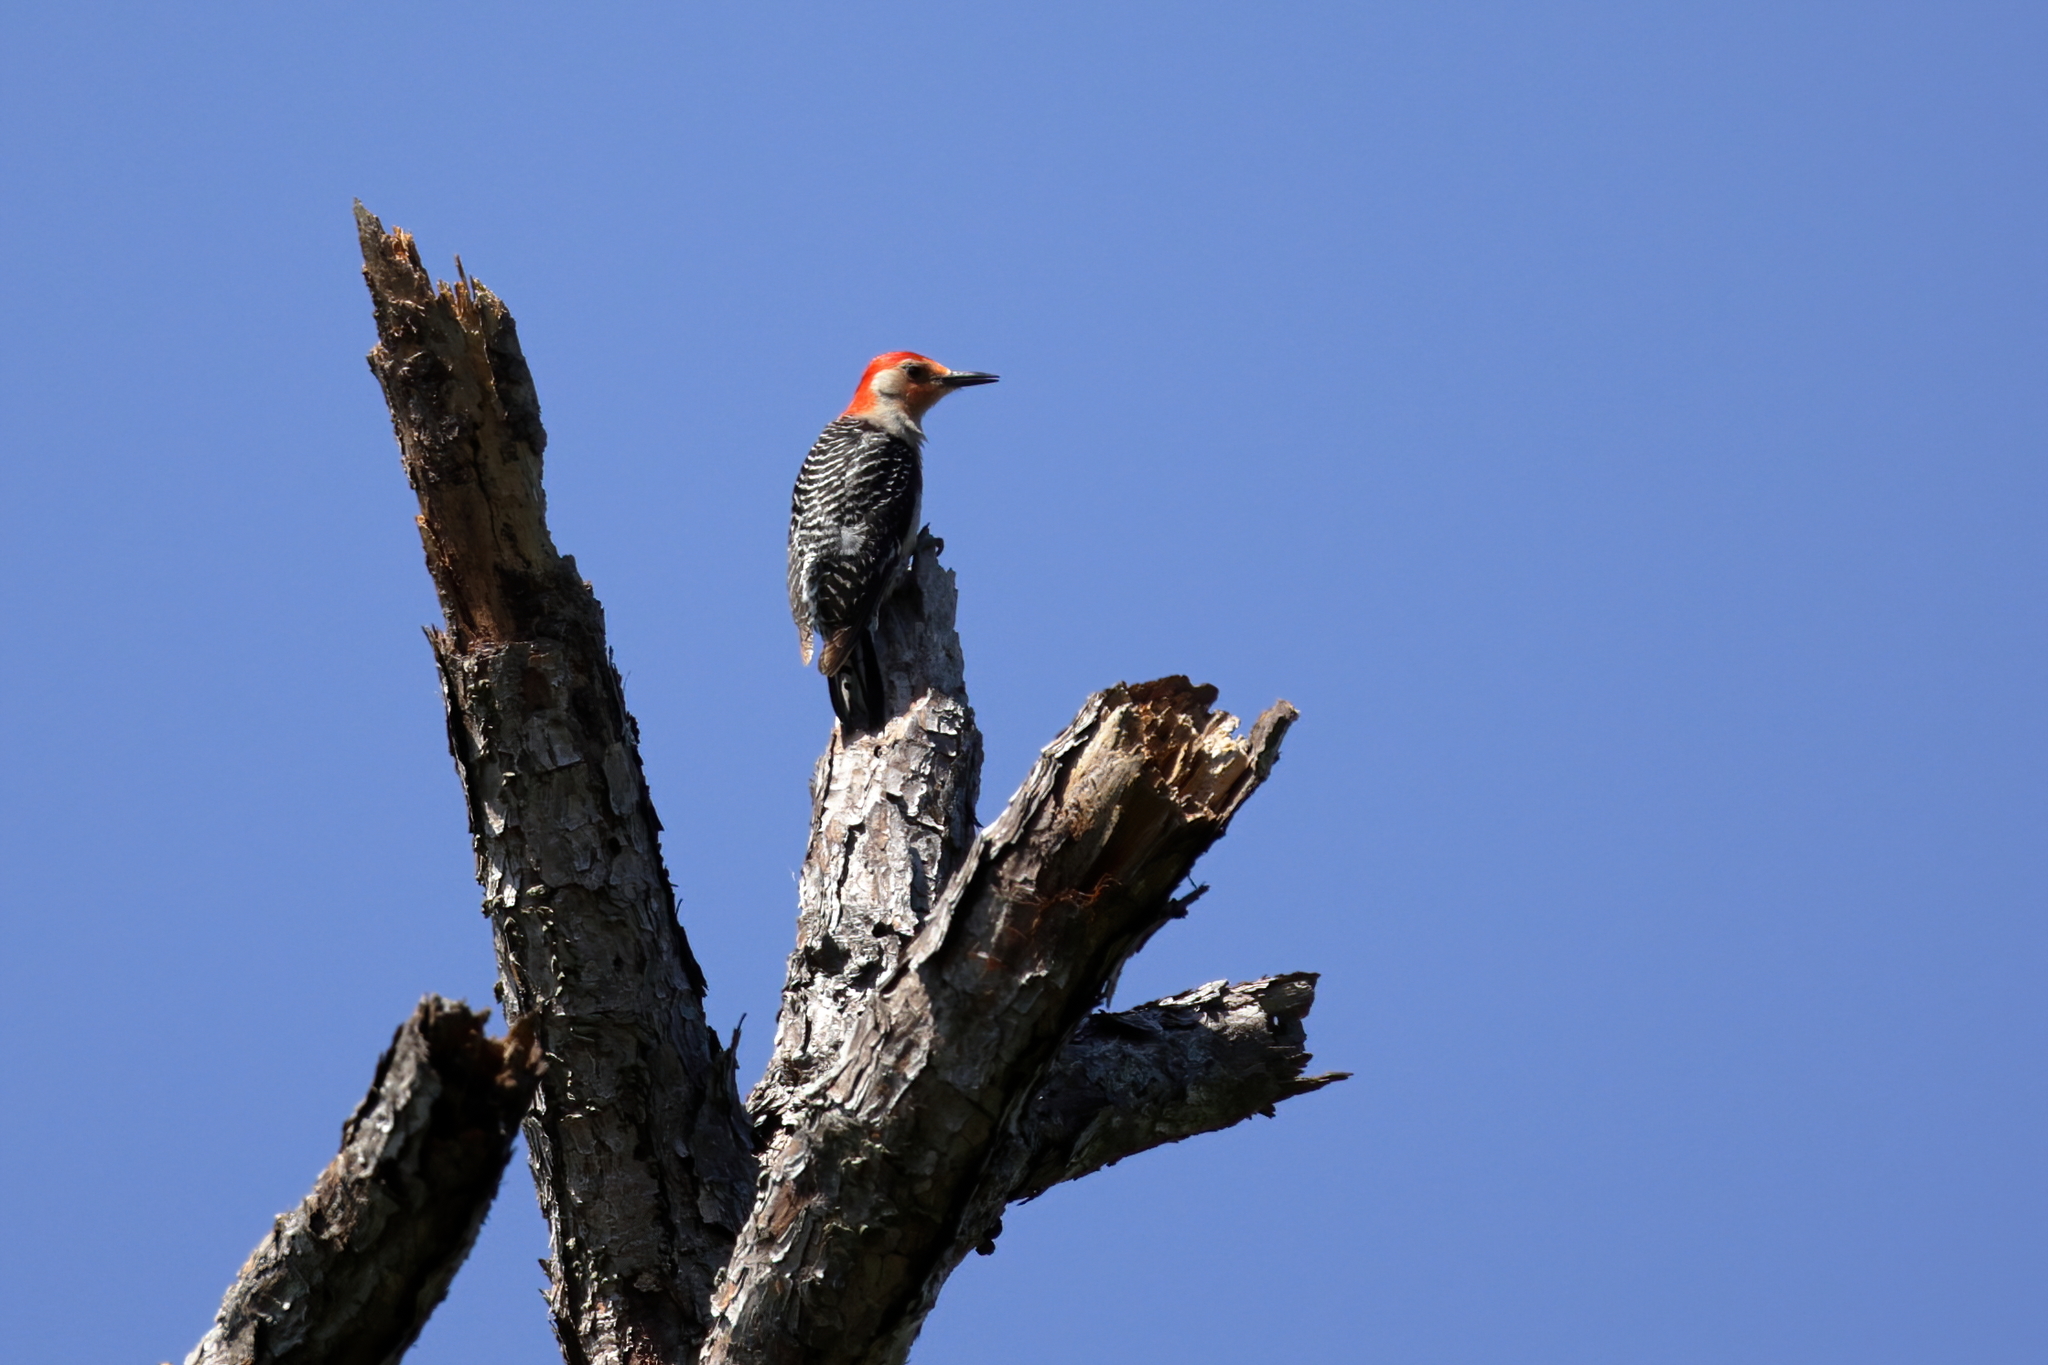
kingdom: Animalia
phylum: Chordata
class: Aves
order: Piciformes
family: Picidae
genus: Melanerpes
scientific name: Melanerpes carolinus
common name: Red-bellied woodpecker
